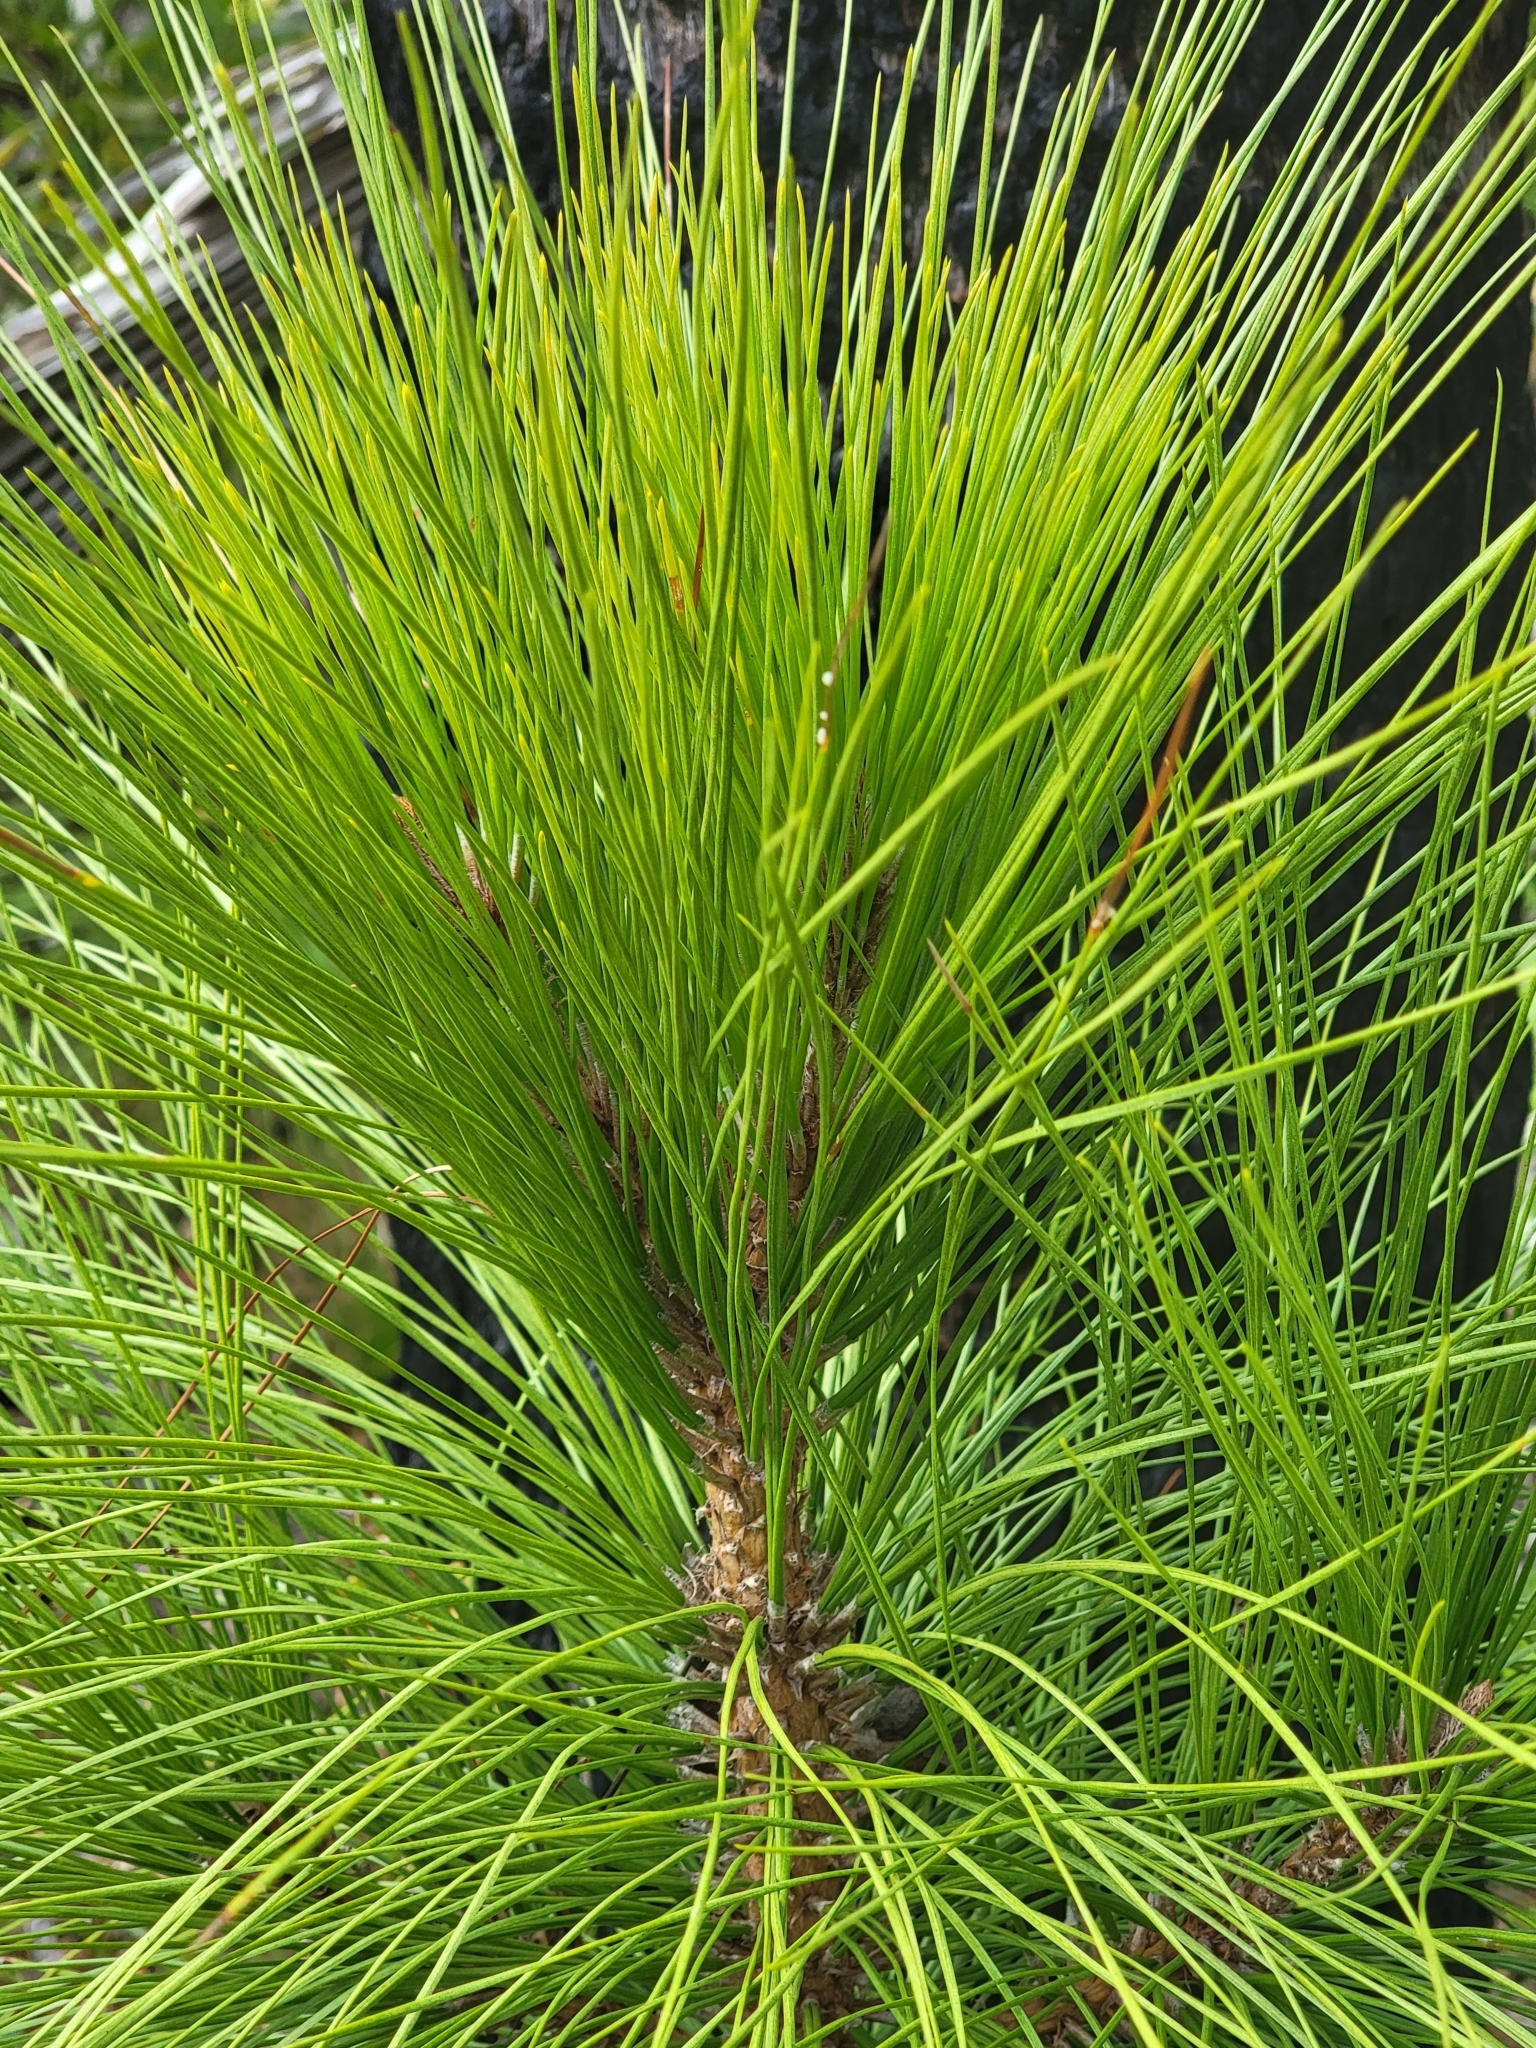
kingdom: Plantae
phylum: Tracheophyta
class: Pinopsida
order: Pinales
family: Pinaceae
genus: Pinus
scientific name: Pinus elliottii
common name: Slash pine
